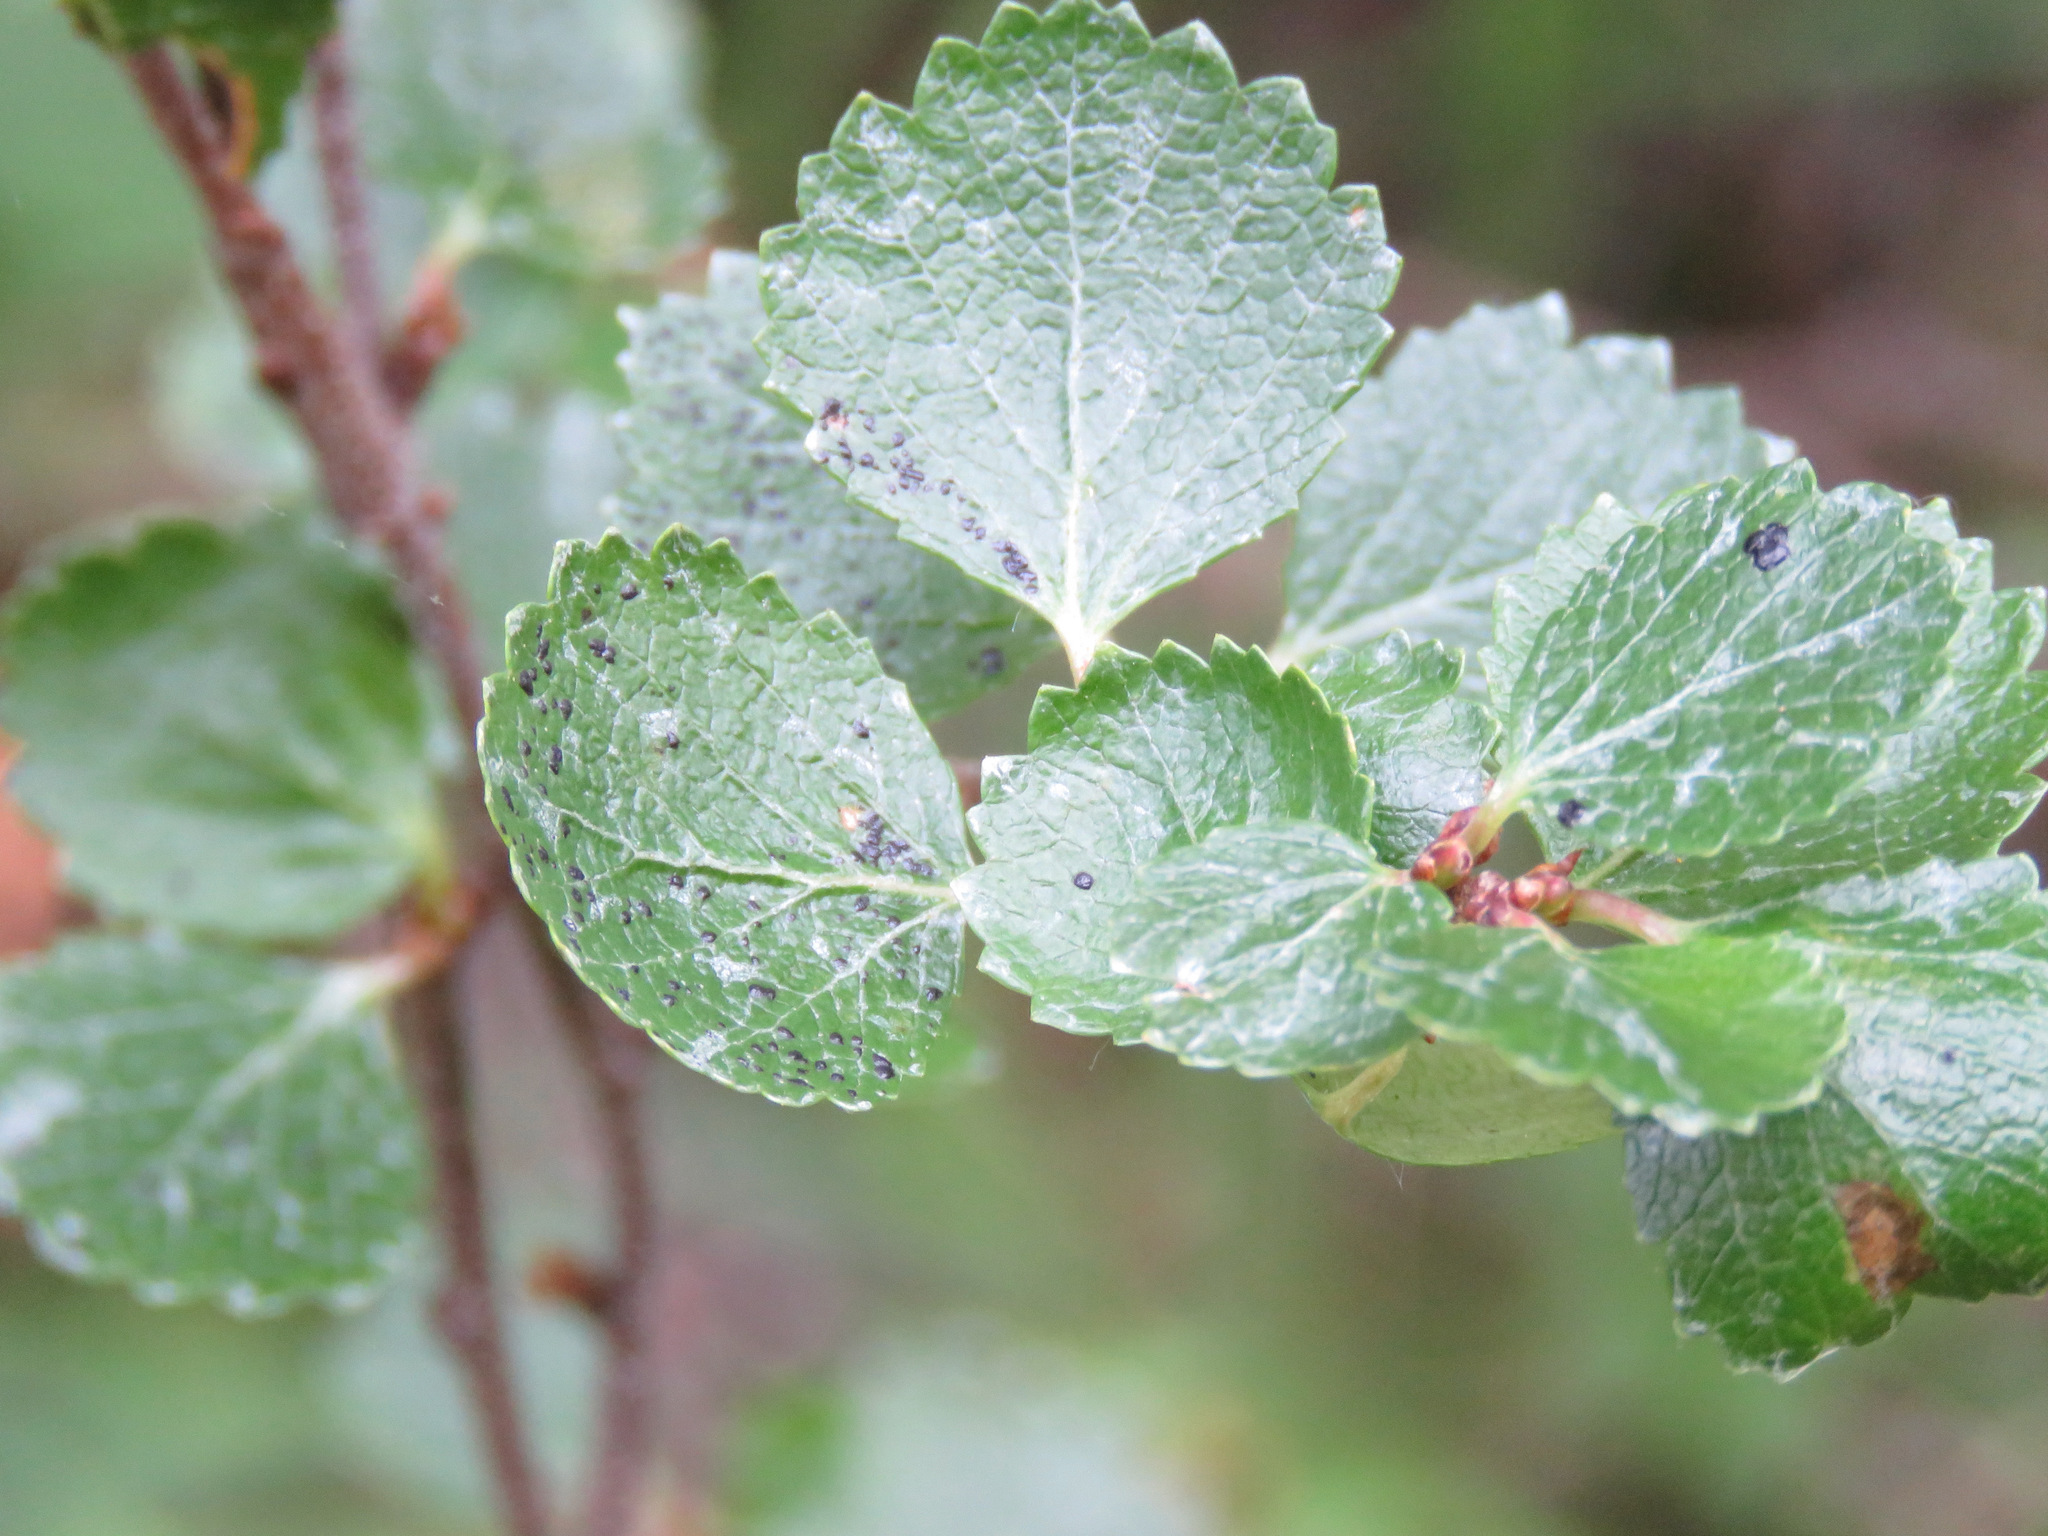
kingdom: Plantae
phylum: Tracheophyta
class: Magnoliopsida
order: Fagales
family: Betulaceae
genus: Betula
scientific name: Betula glandulosa
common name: Dwarf birch
